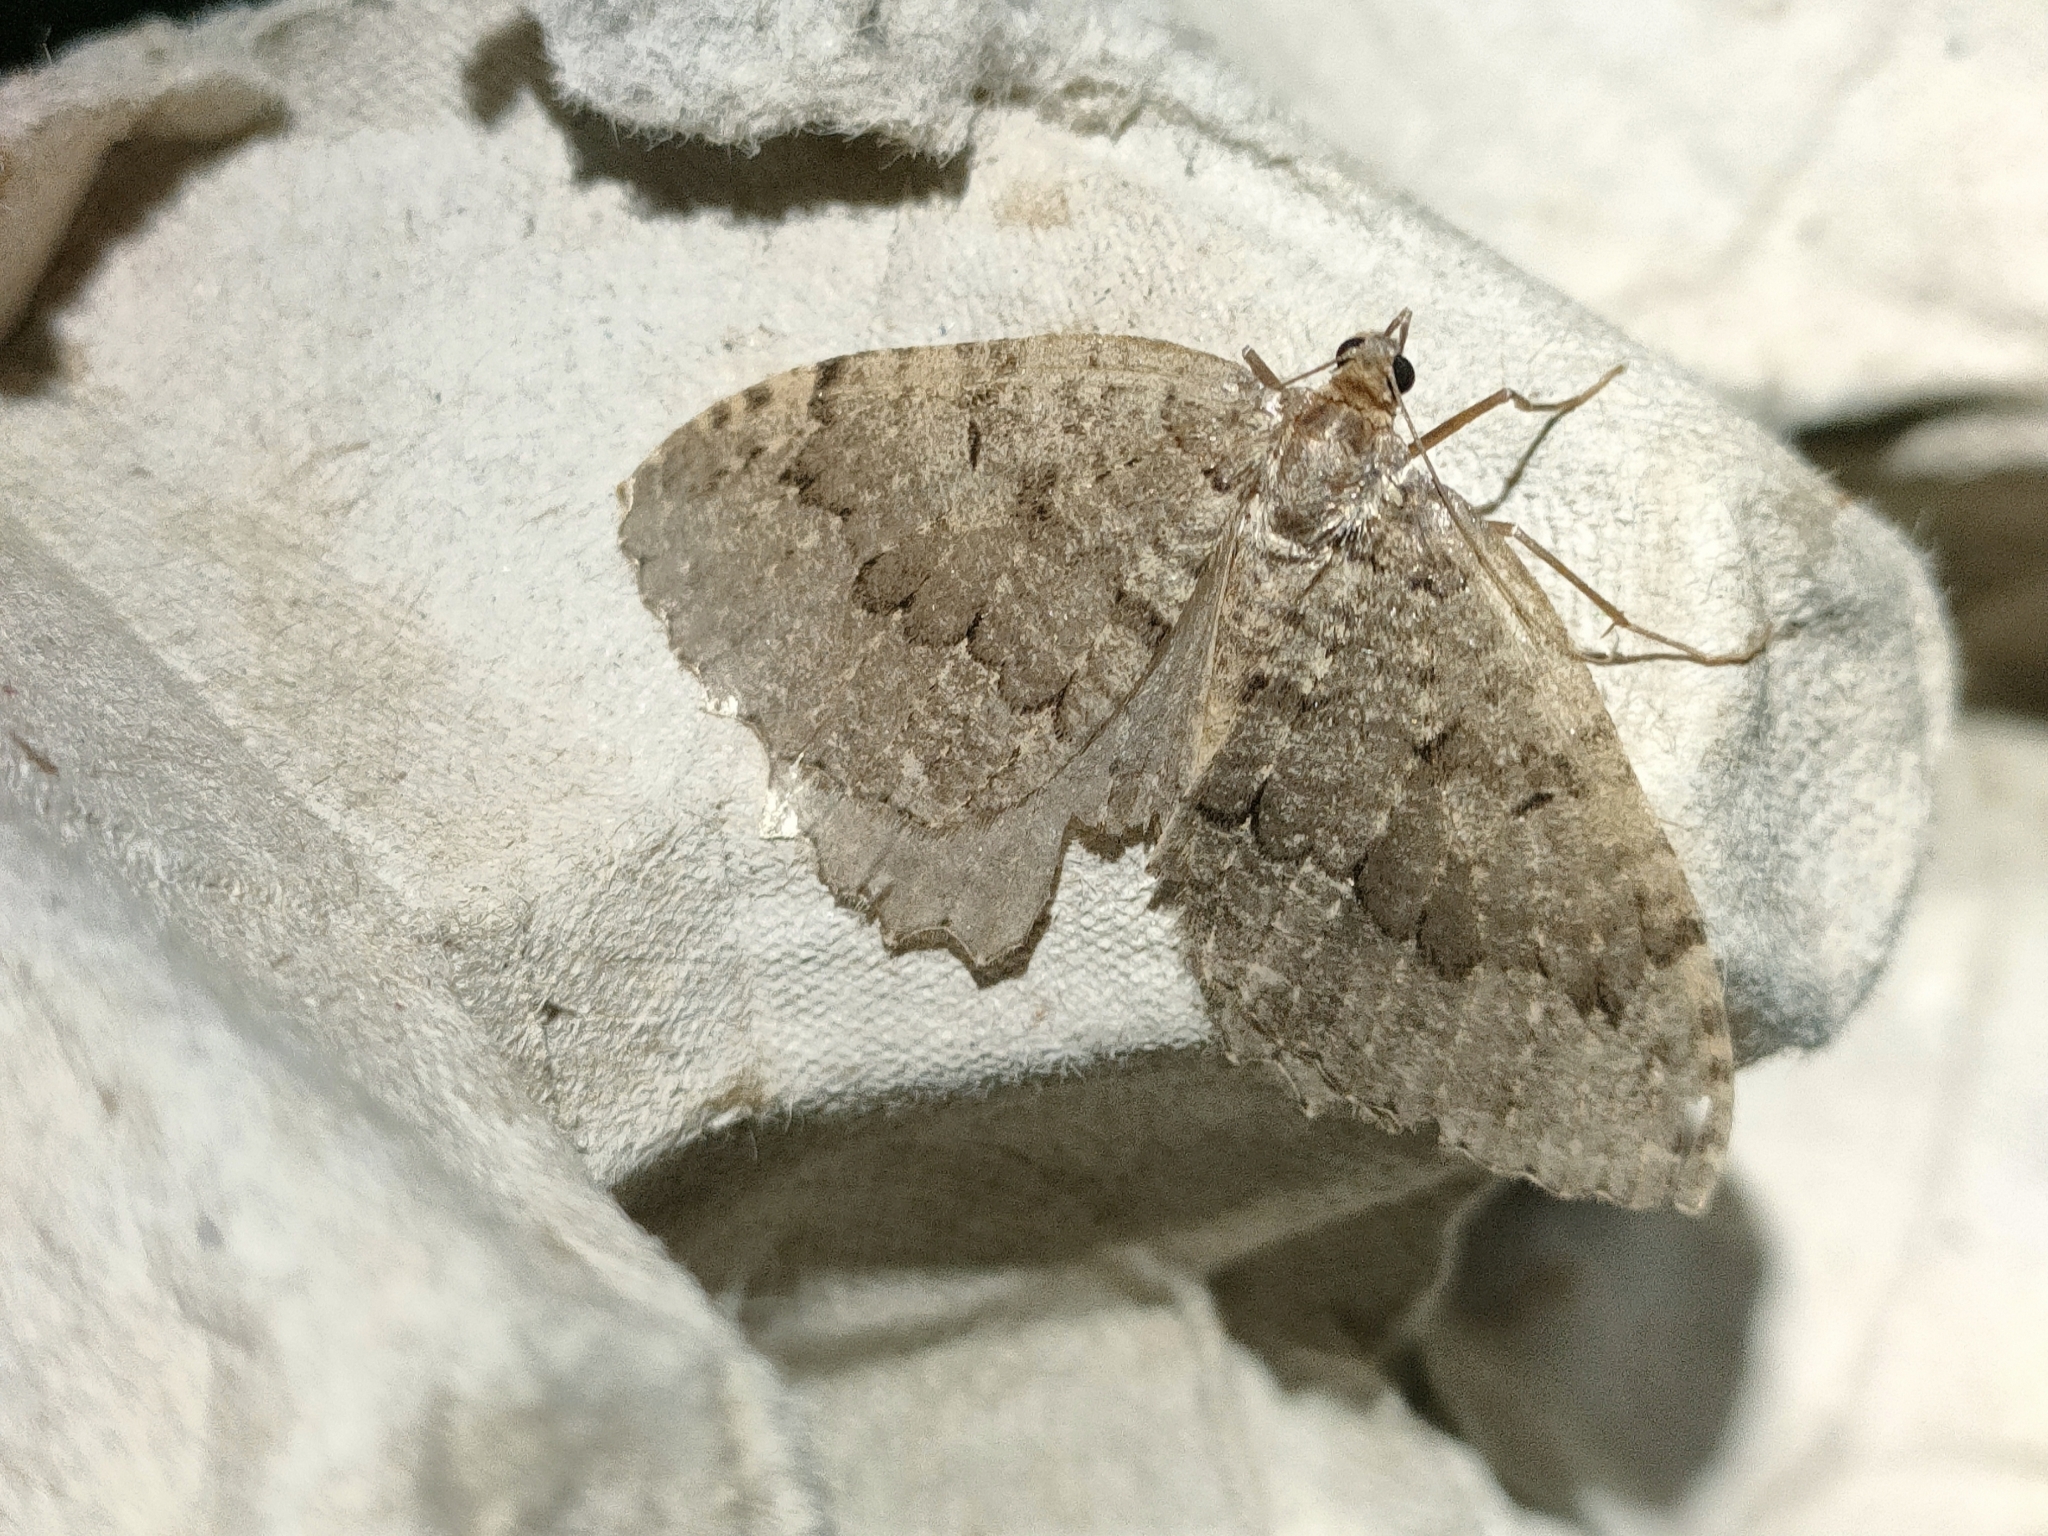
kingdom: Animalia
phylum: Arthropoda
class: Insecta
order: Lepidoptera
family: Geometridae
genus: Triphosa
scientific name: Triphosa dubitata
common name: Tissue
